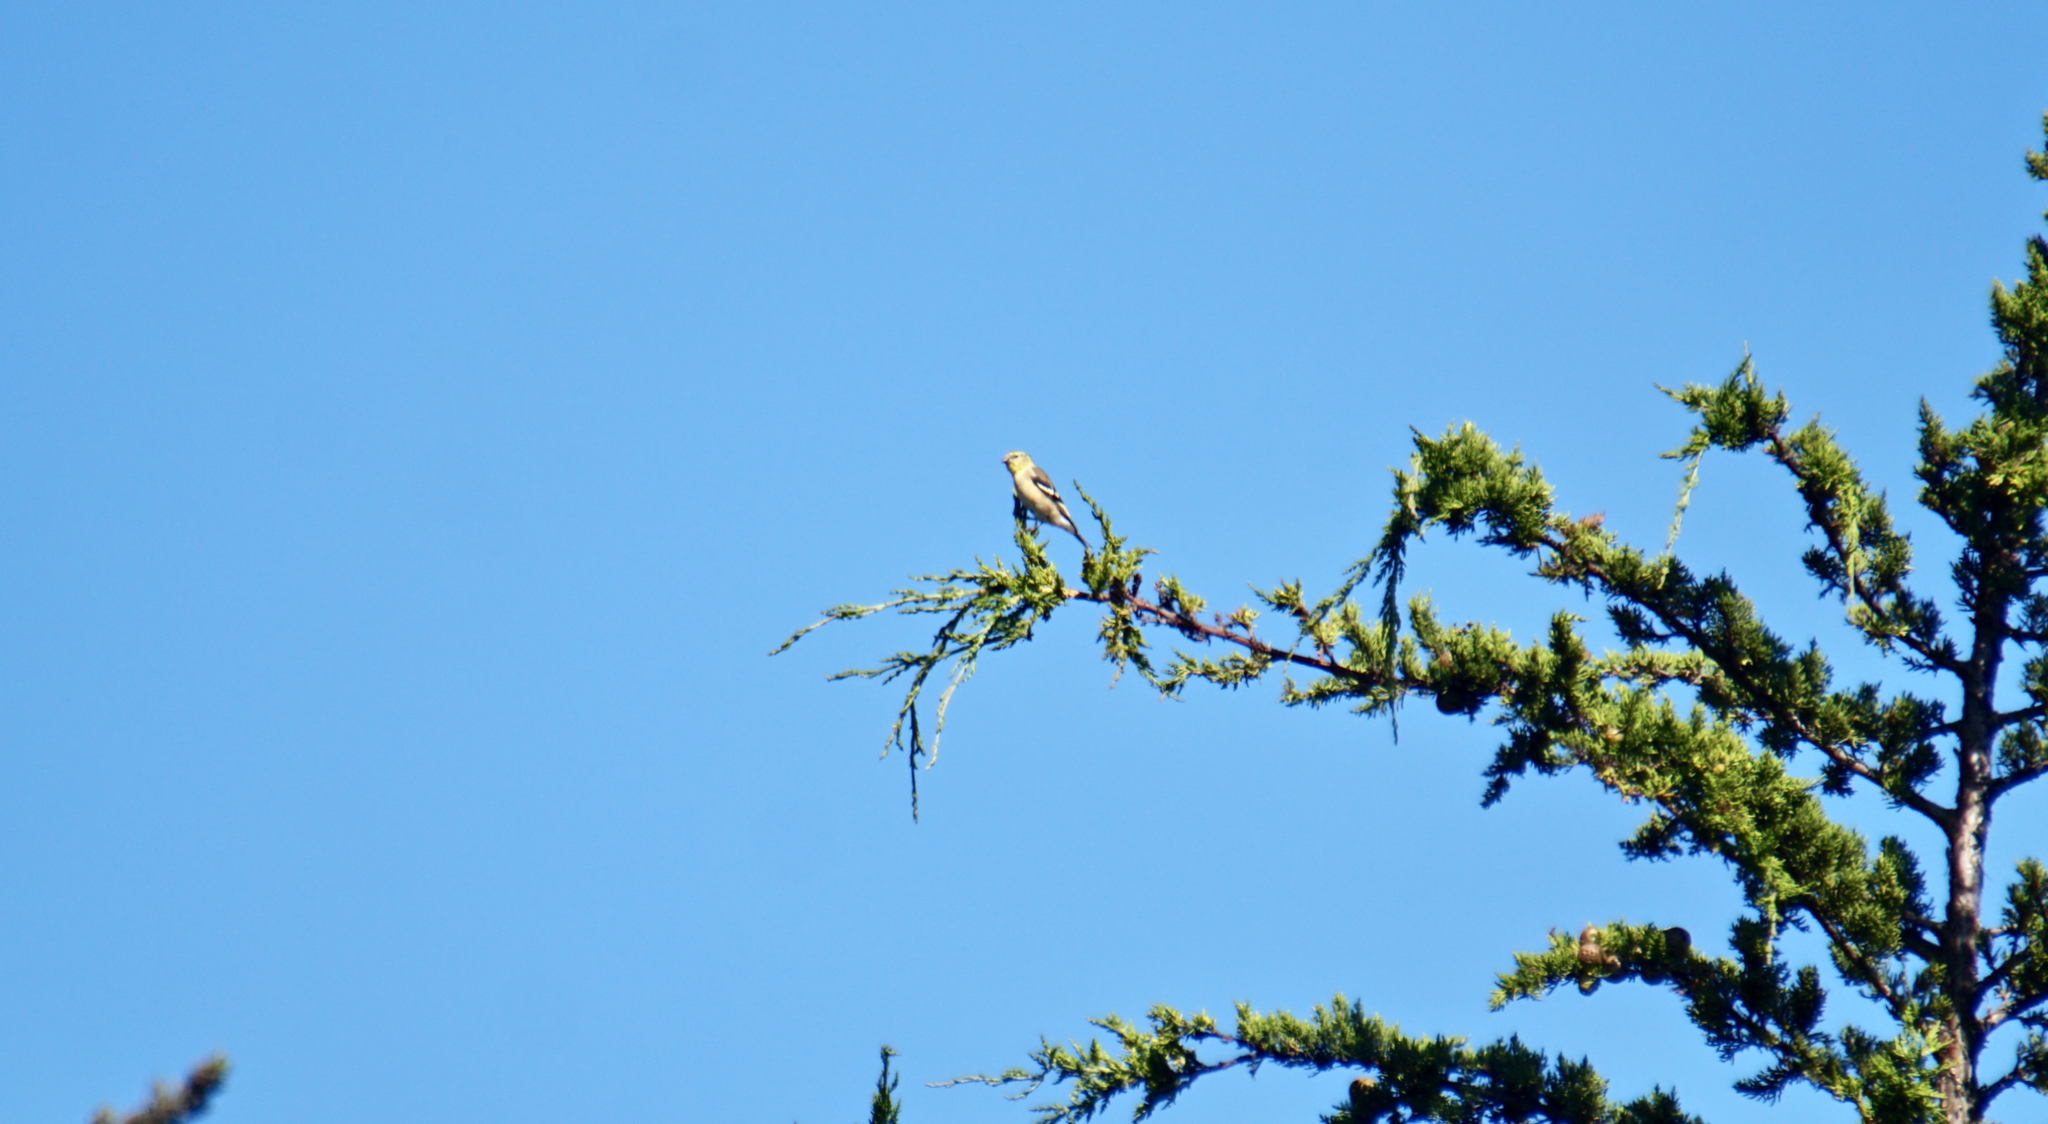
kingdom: Animalia
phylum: Chordata
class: Aves
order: Passeriformes
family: Fringillidae
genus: Spinus
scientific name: Spinus tristis
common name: American goldfinch
